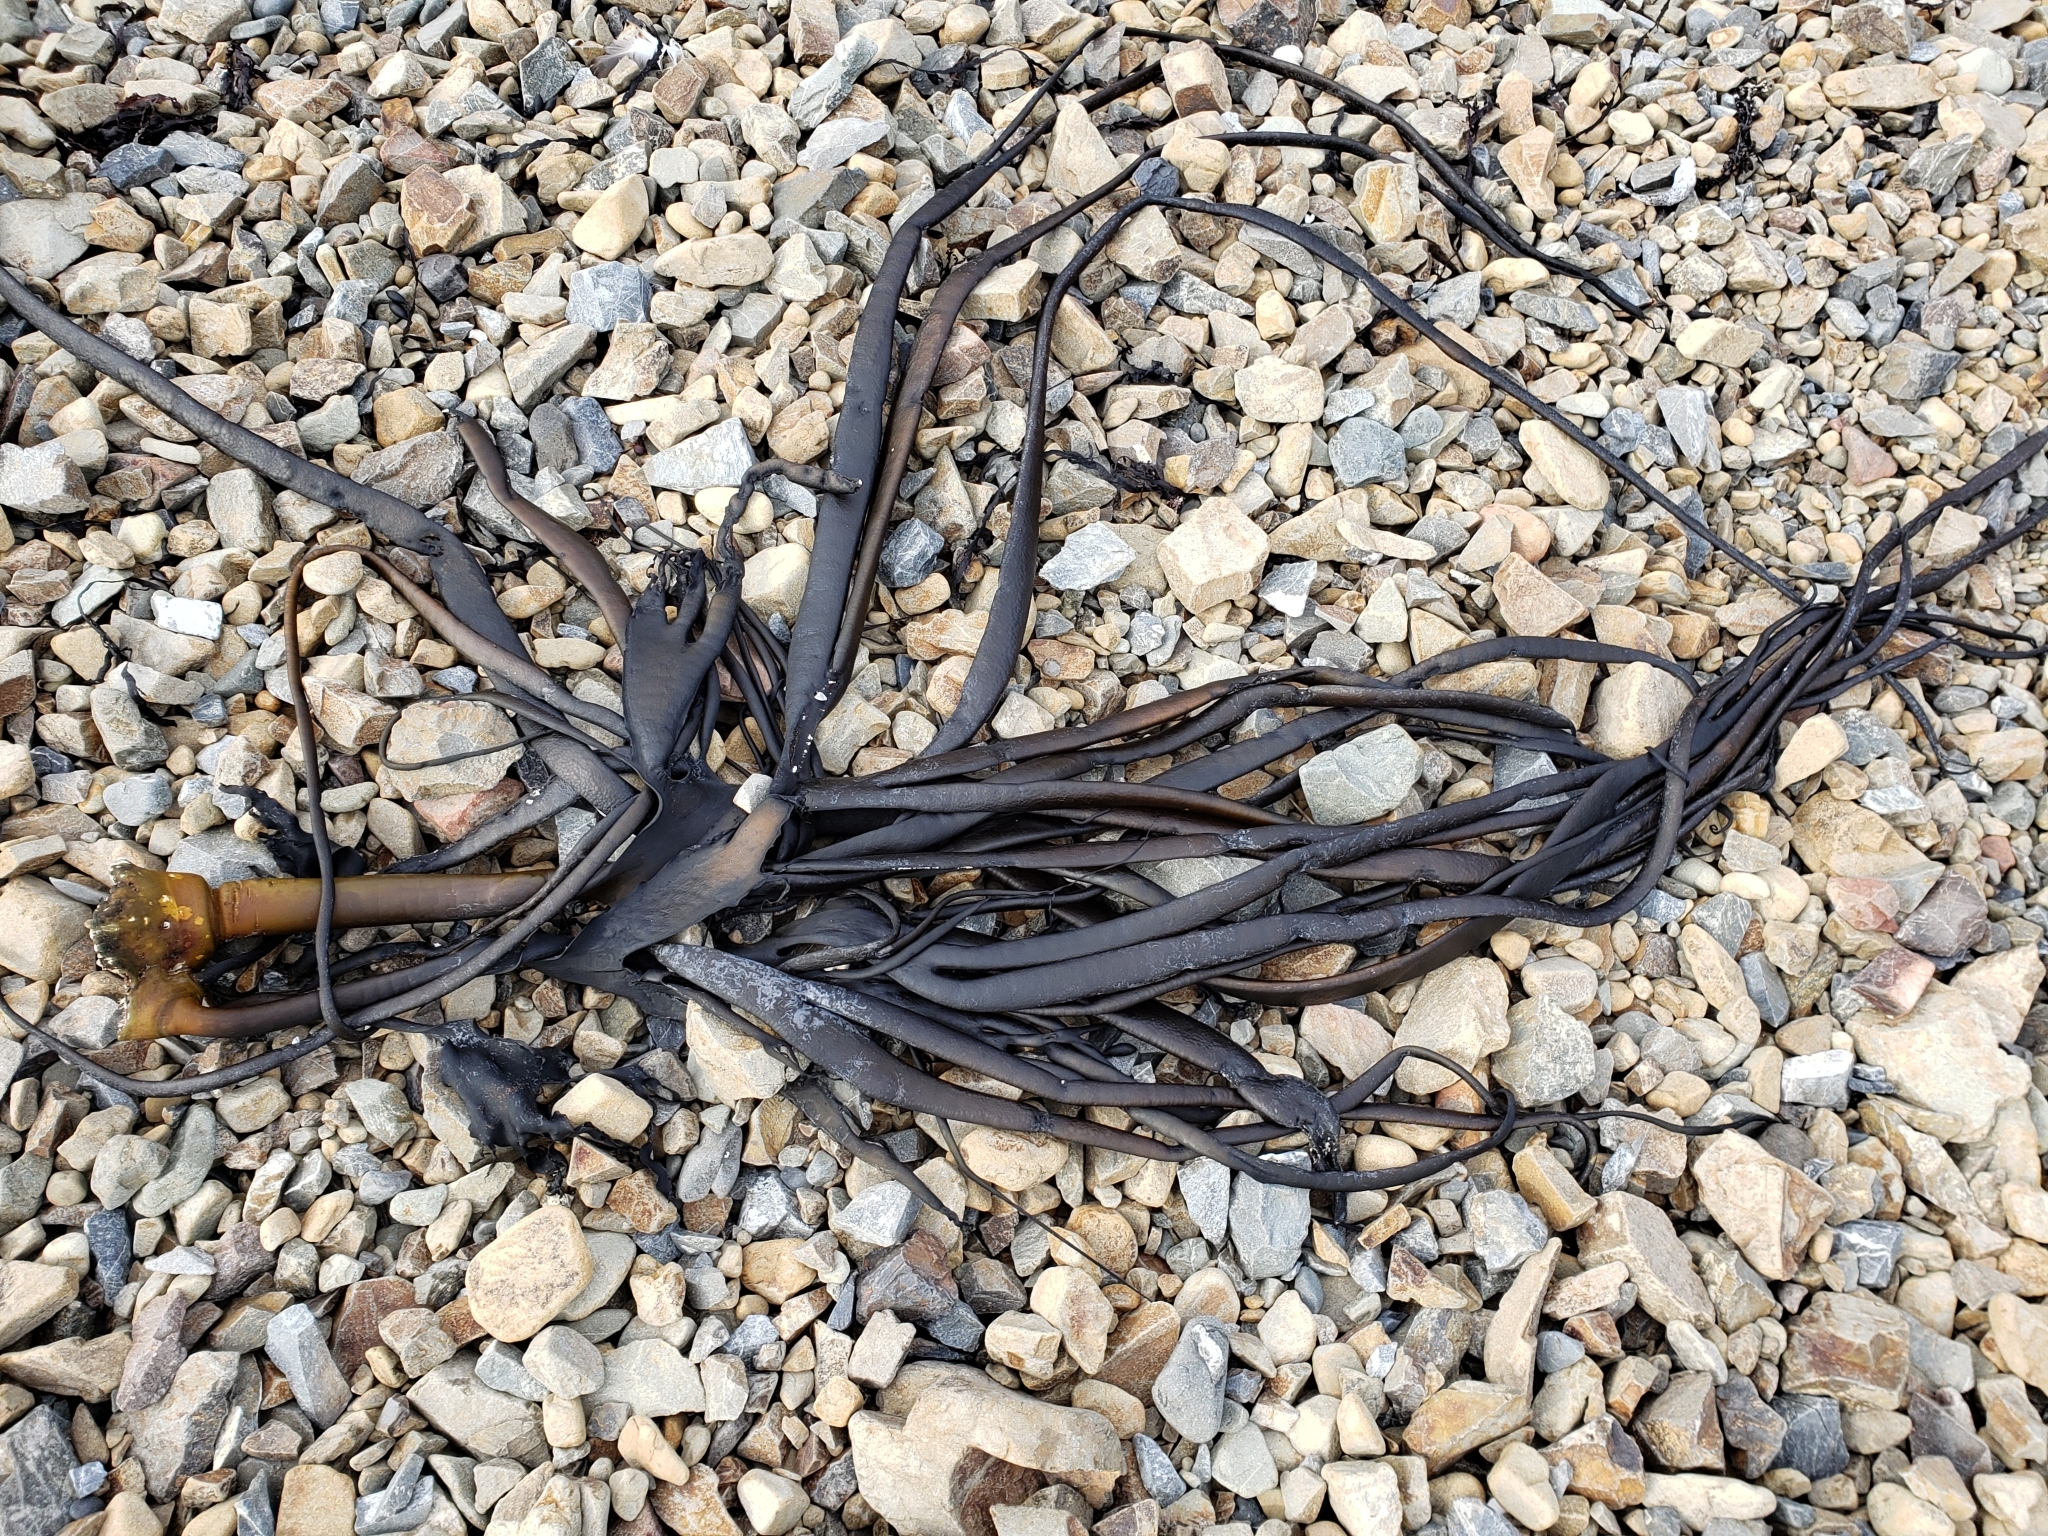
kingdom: Chromista
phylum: Ochrophyta
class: Phaeophyceae
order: Fucales
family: Durvillaeaceae
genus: Durvillaea
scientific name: Durvillaea antarctica
